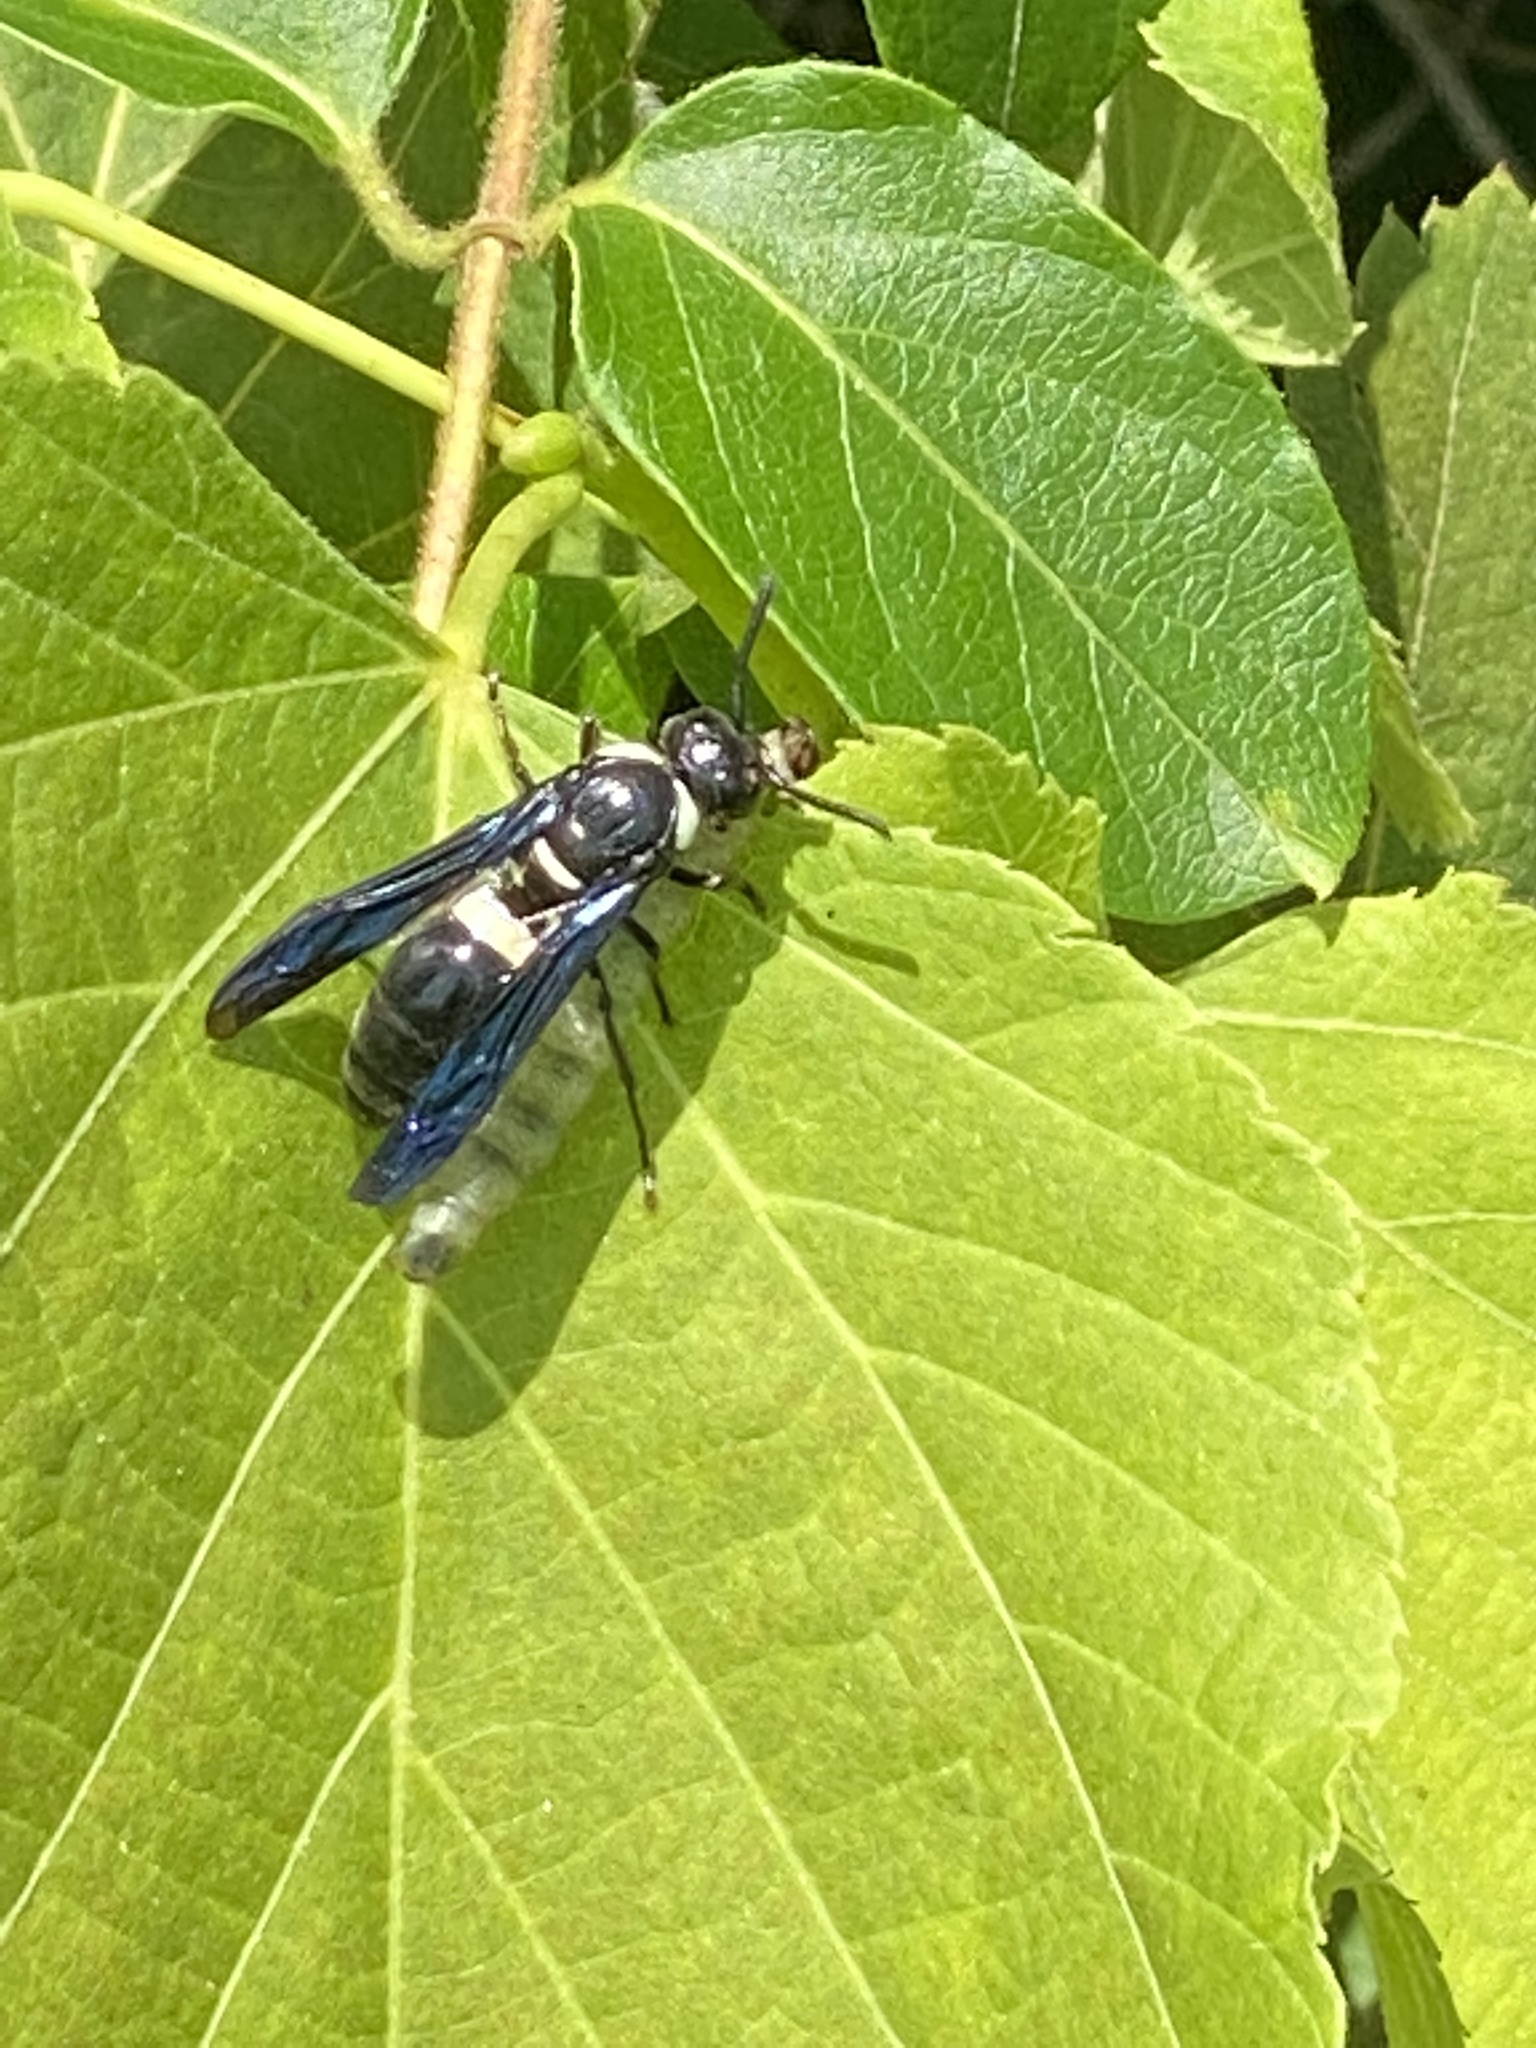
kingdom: Animalia
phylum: Arthropoda
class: Insecta
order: Hymenoptera
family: Eumenidae
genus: Monobia
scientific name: Monobia quadridens
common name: Four-toothed mason wasp
